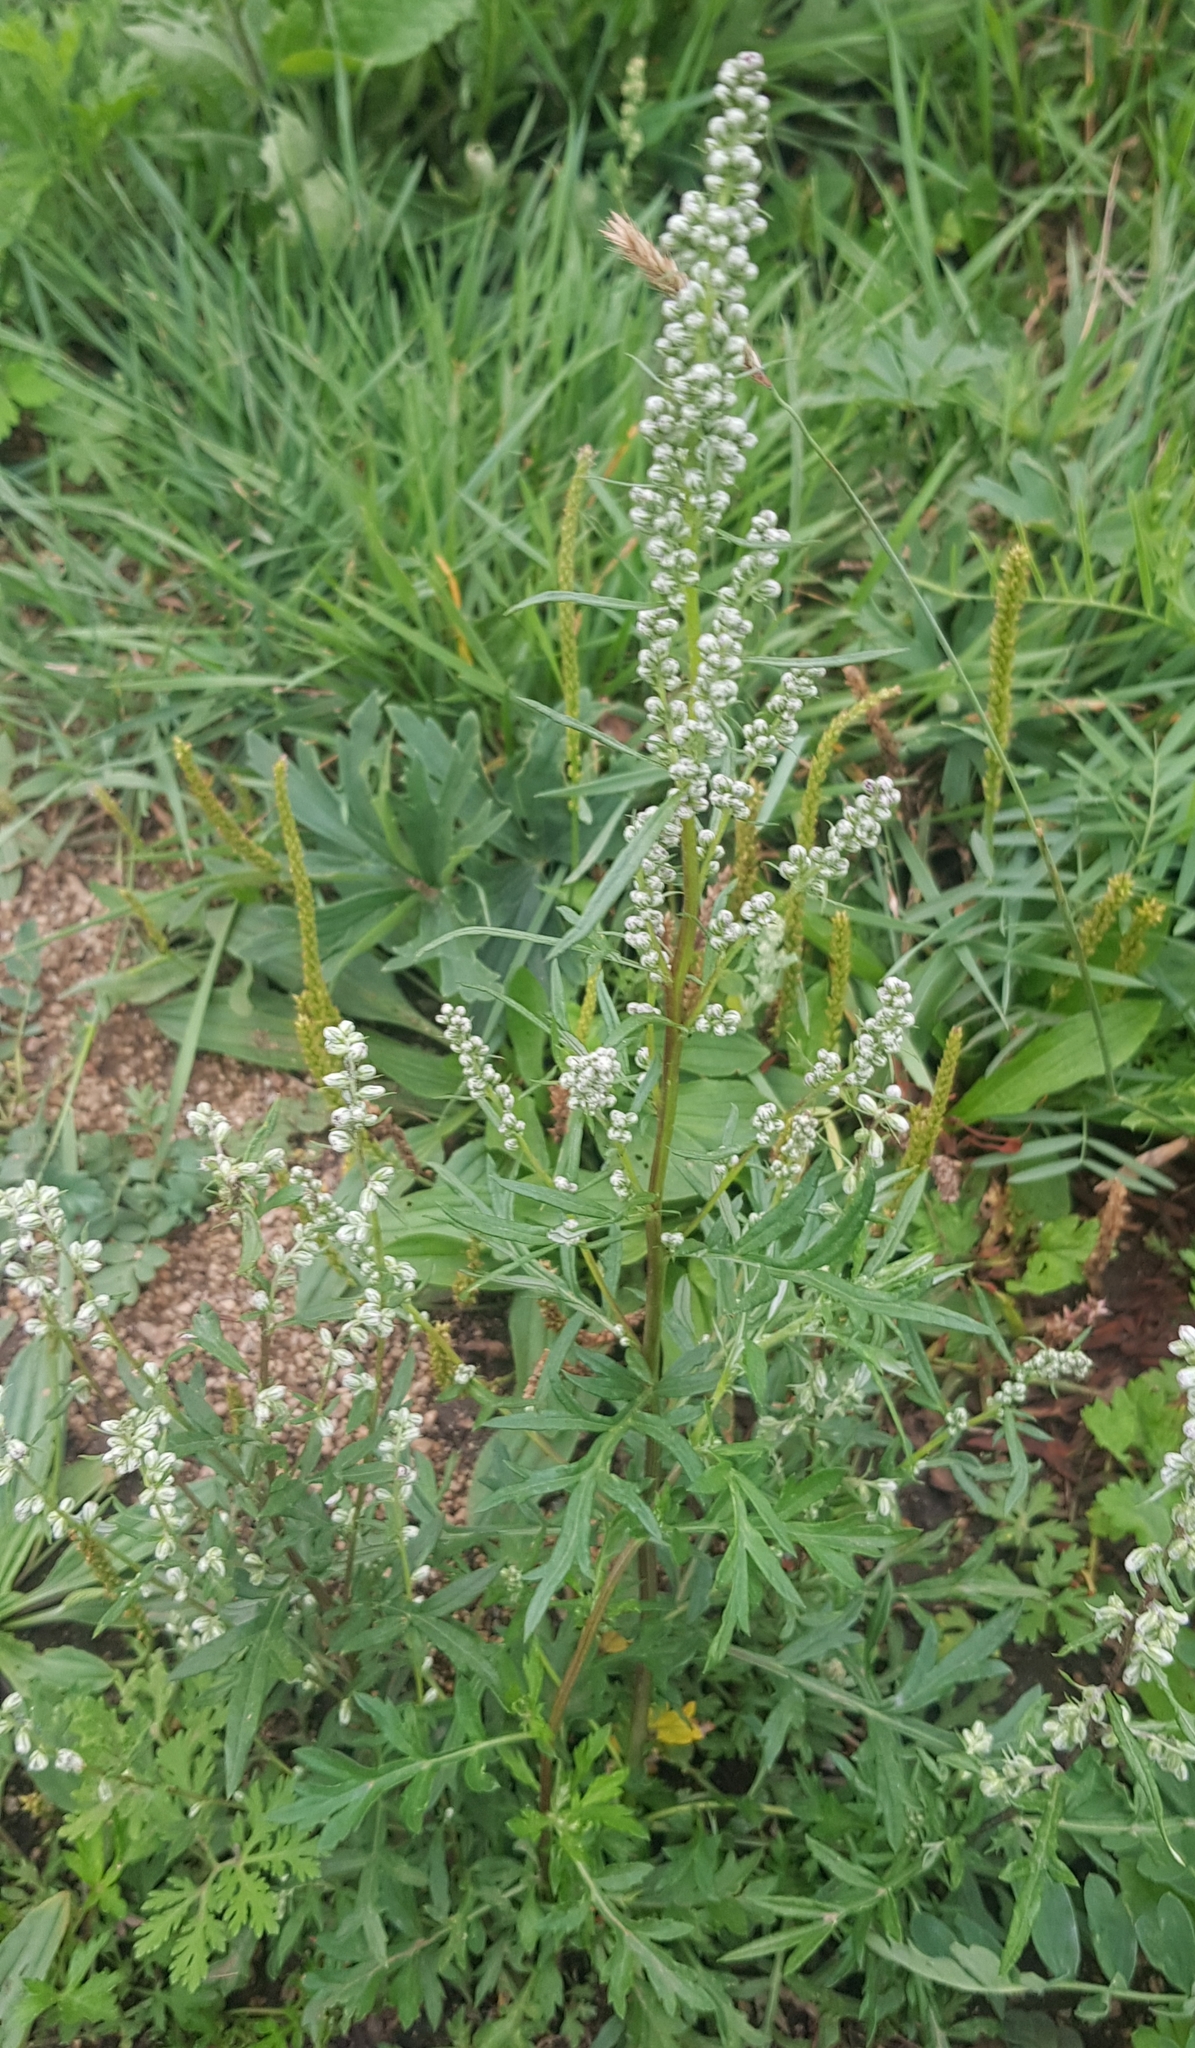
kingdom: Plantae
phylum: Tracheophyta
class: Magnoliopsida
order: Asterales
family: Asteraceae
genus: Artemisia
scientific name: Artemisia vulgaris
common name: Mugwort
